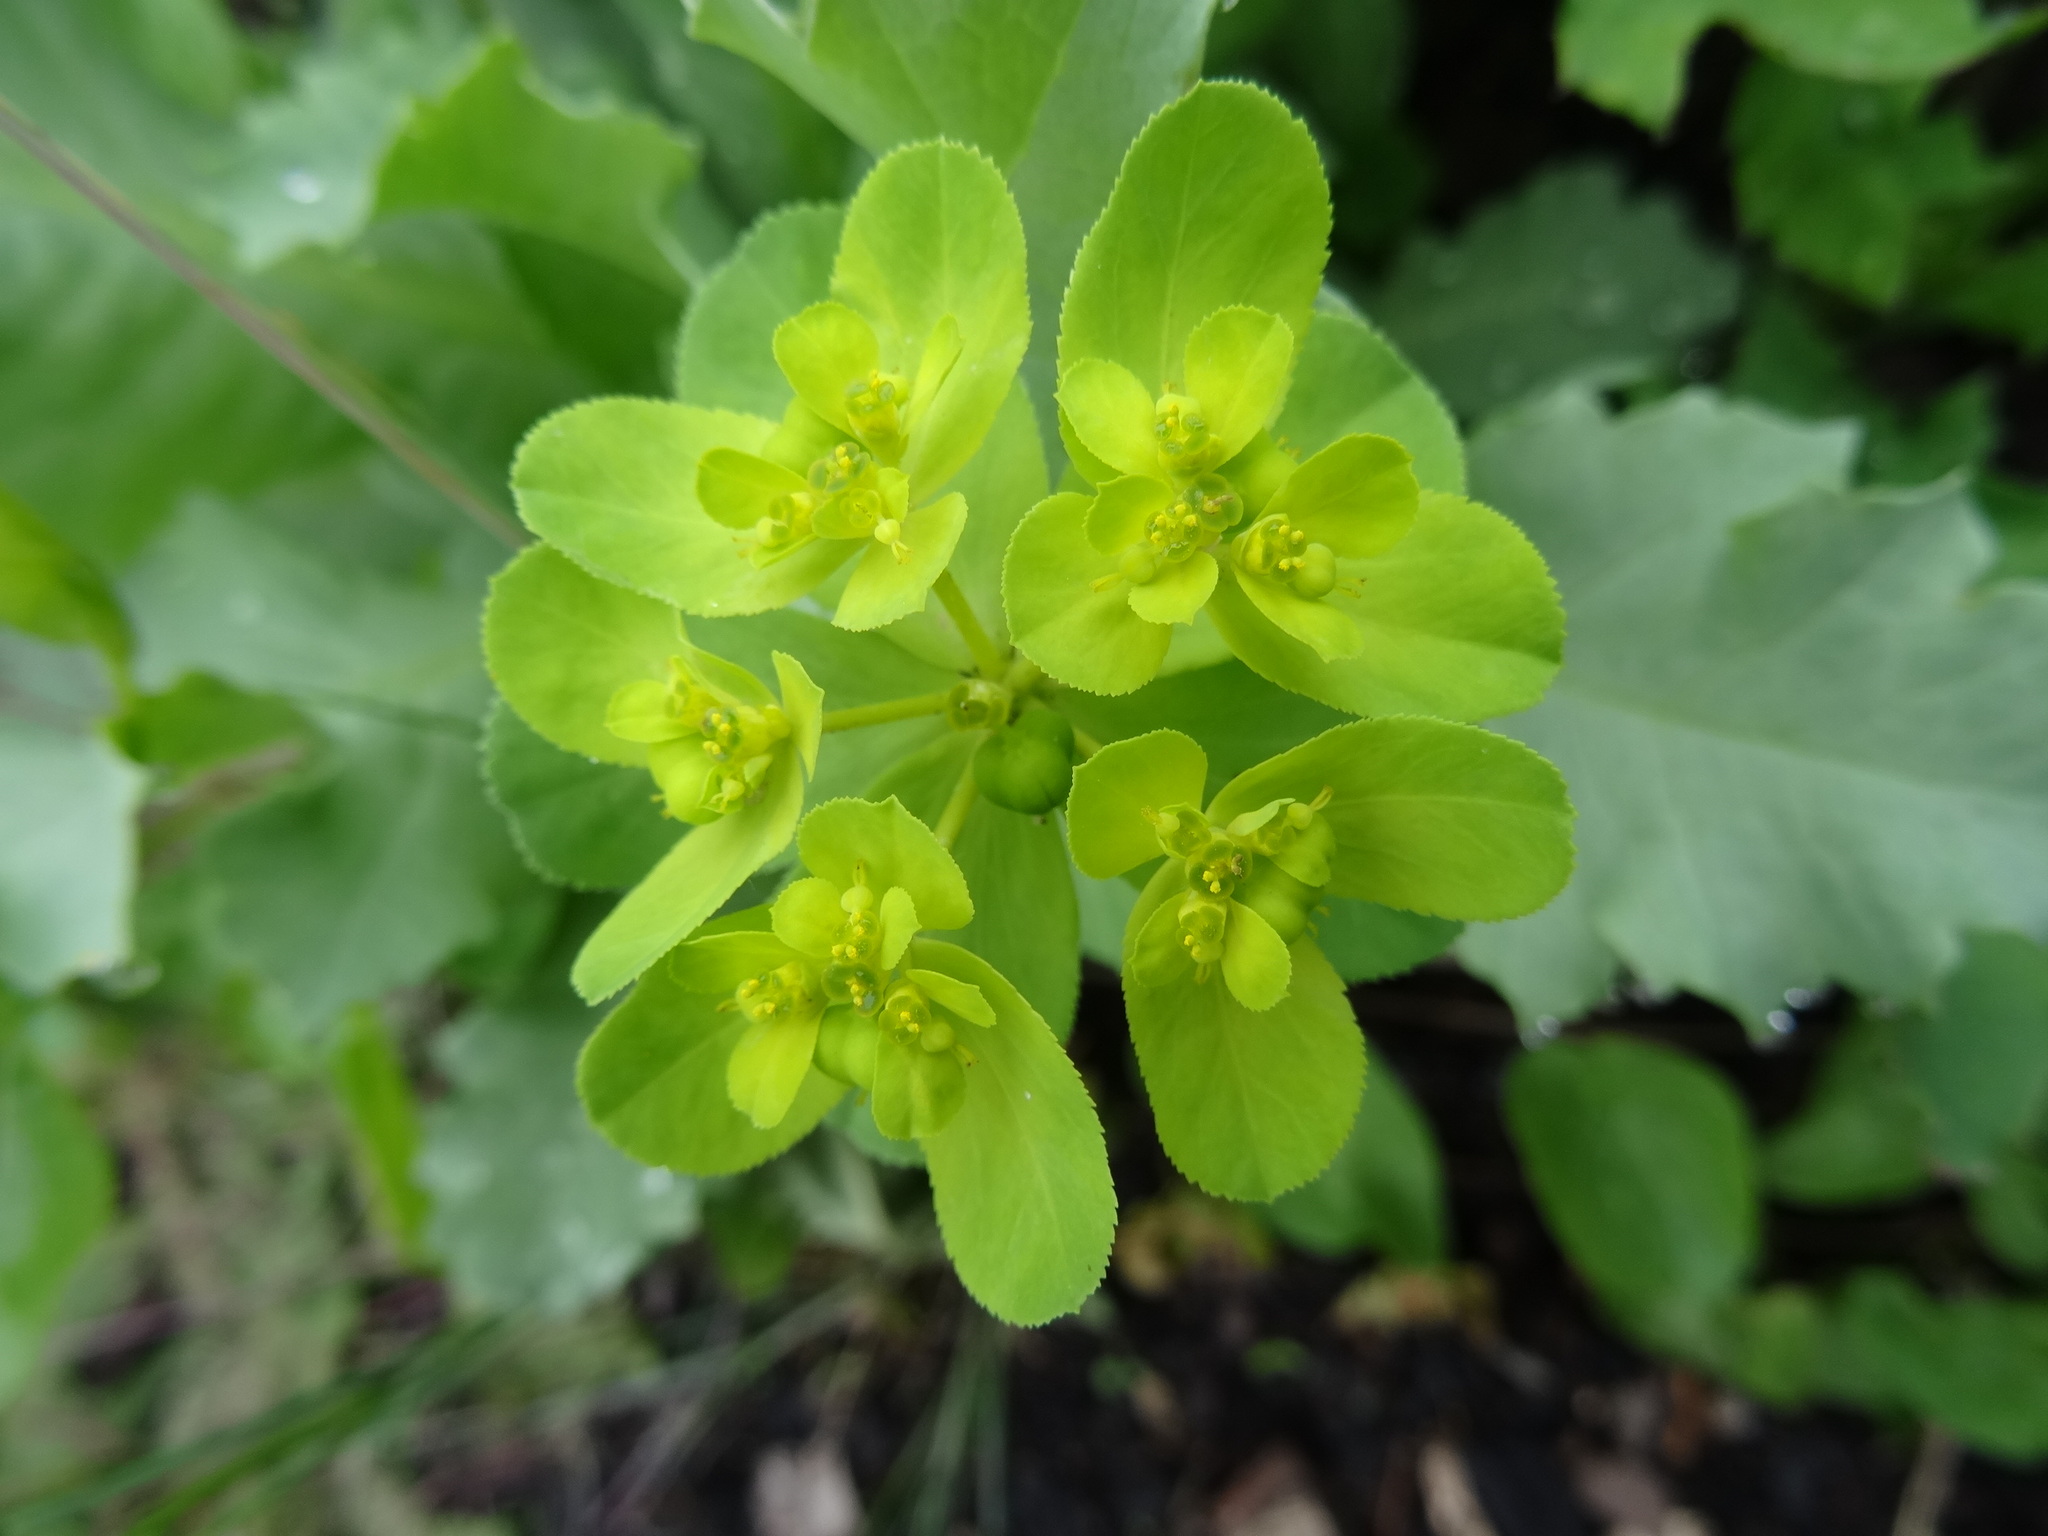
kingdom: Plantae
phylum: Tracheophyta
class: Magnoliopsida
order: Malpighiales
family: Euphorbiaceae
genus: Euphorbia
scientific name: Euphorbia helioscopia
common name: Sun spurge
